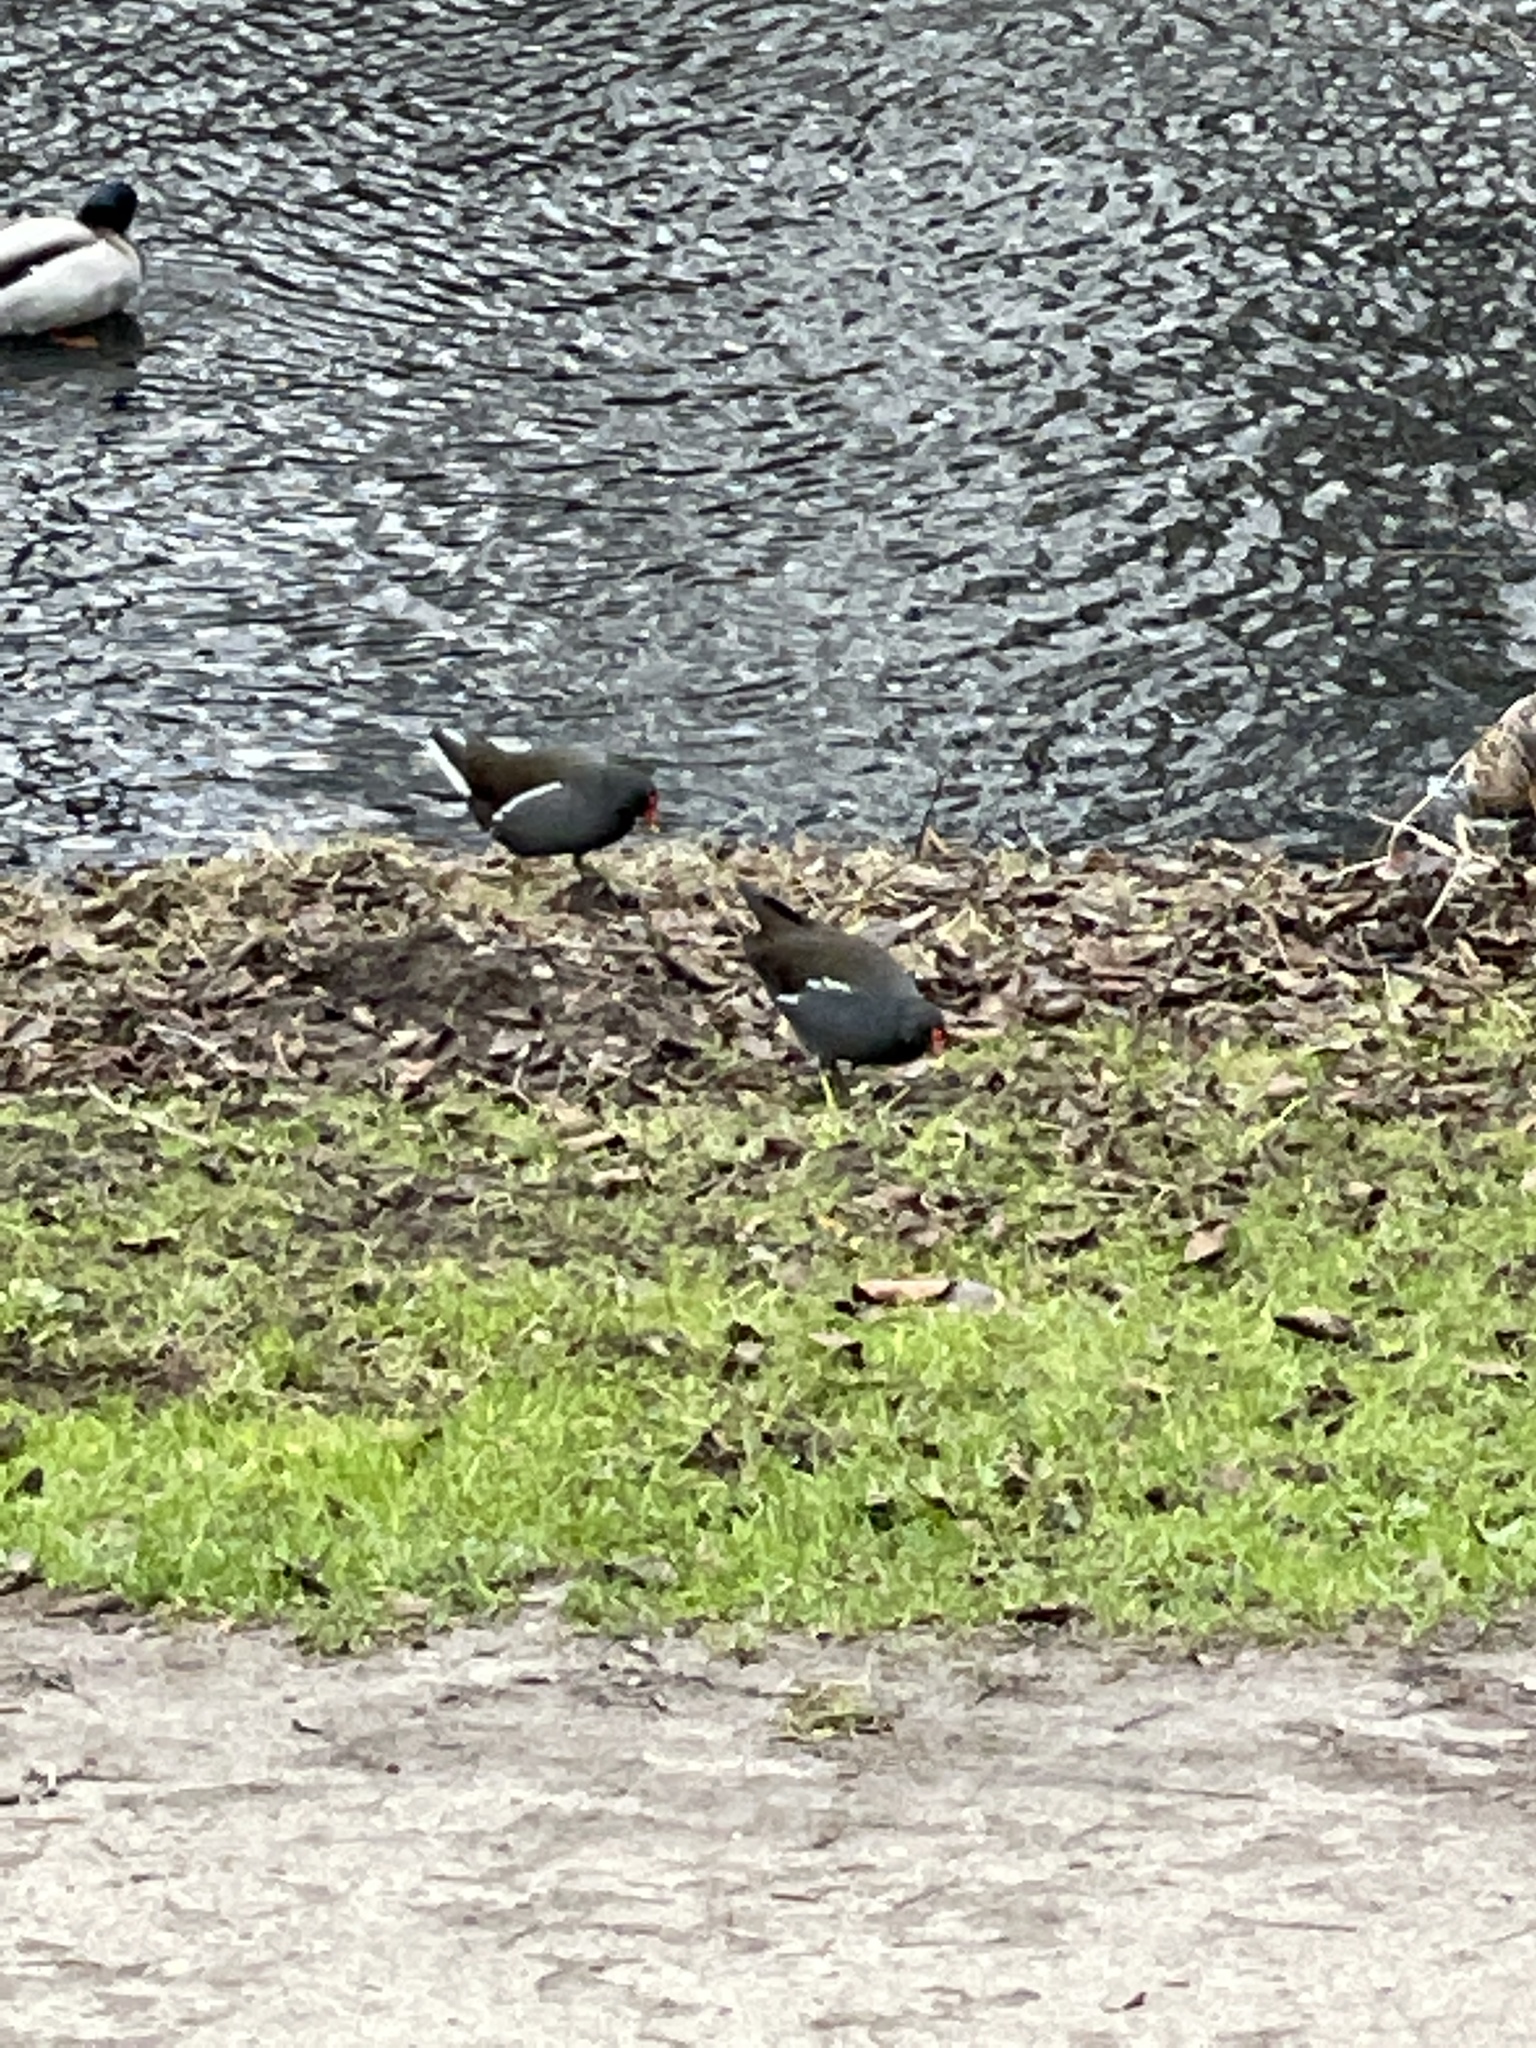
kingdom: Animalia
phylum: Chordata
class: Aves
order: Gruiformes
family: Rallidae
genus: Gallinula
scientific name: Gallinula chloropus
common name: Common moorhen
